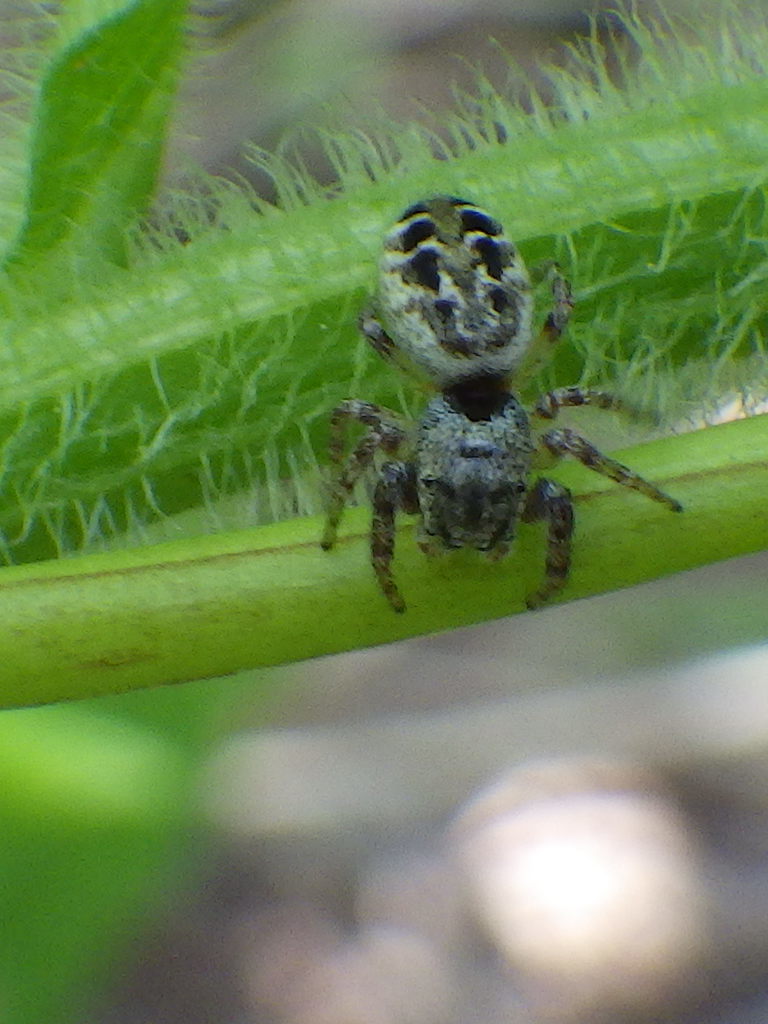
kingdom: Animalia
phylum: Arthropoda
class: Arachnida
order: Araneae
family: Salticidae
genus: Pelegrina
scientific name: Pelegrina proterva
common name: Common white-cheeked jumping spider
